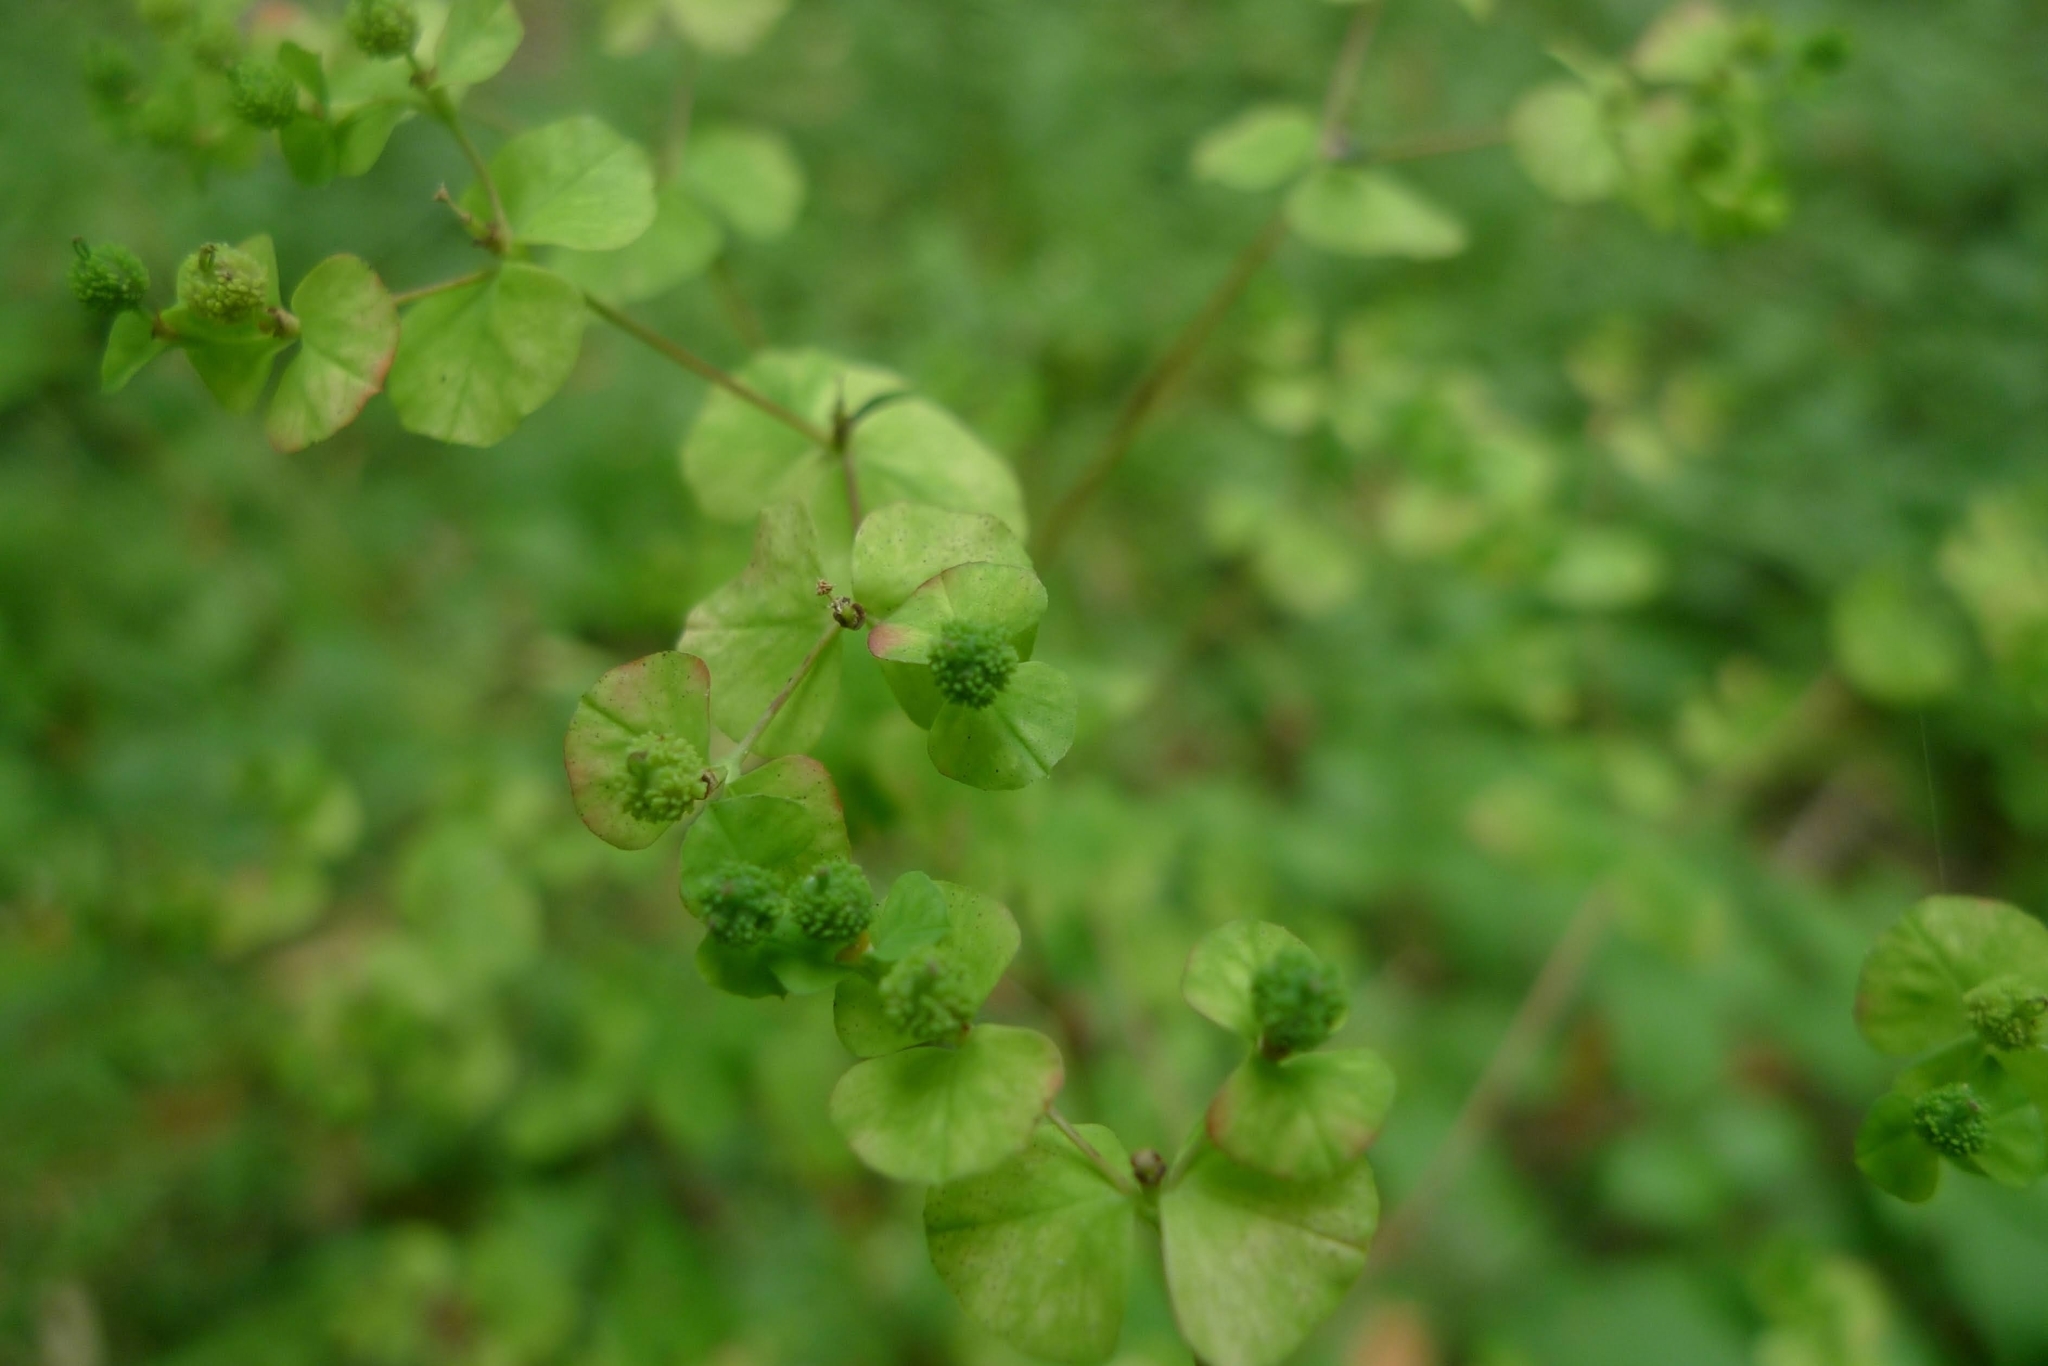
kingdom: Plantae
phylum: Tracheophyta
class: Magnoliopsida
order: Malpighiales
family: Euphorbiaceae
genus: Euphorbia
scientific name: Euphorbia stricta
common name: Upright spurge
